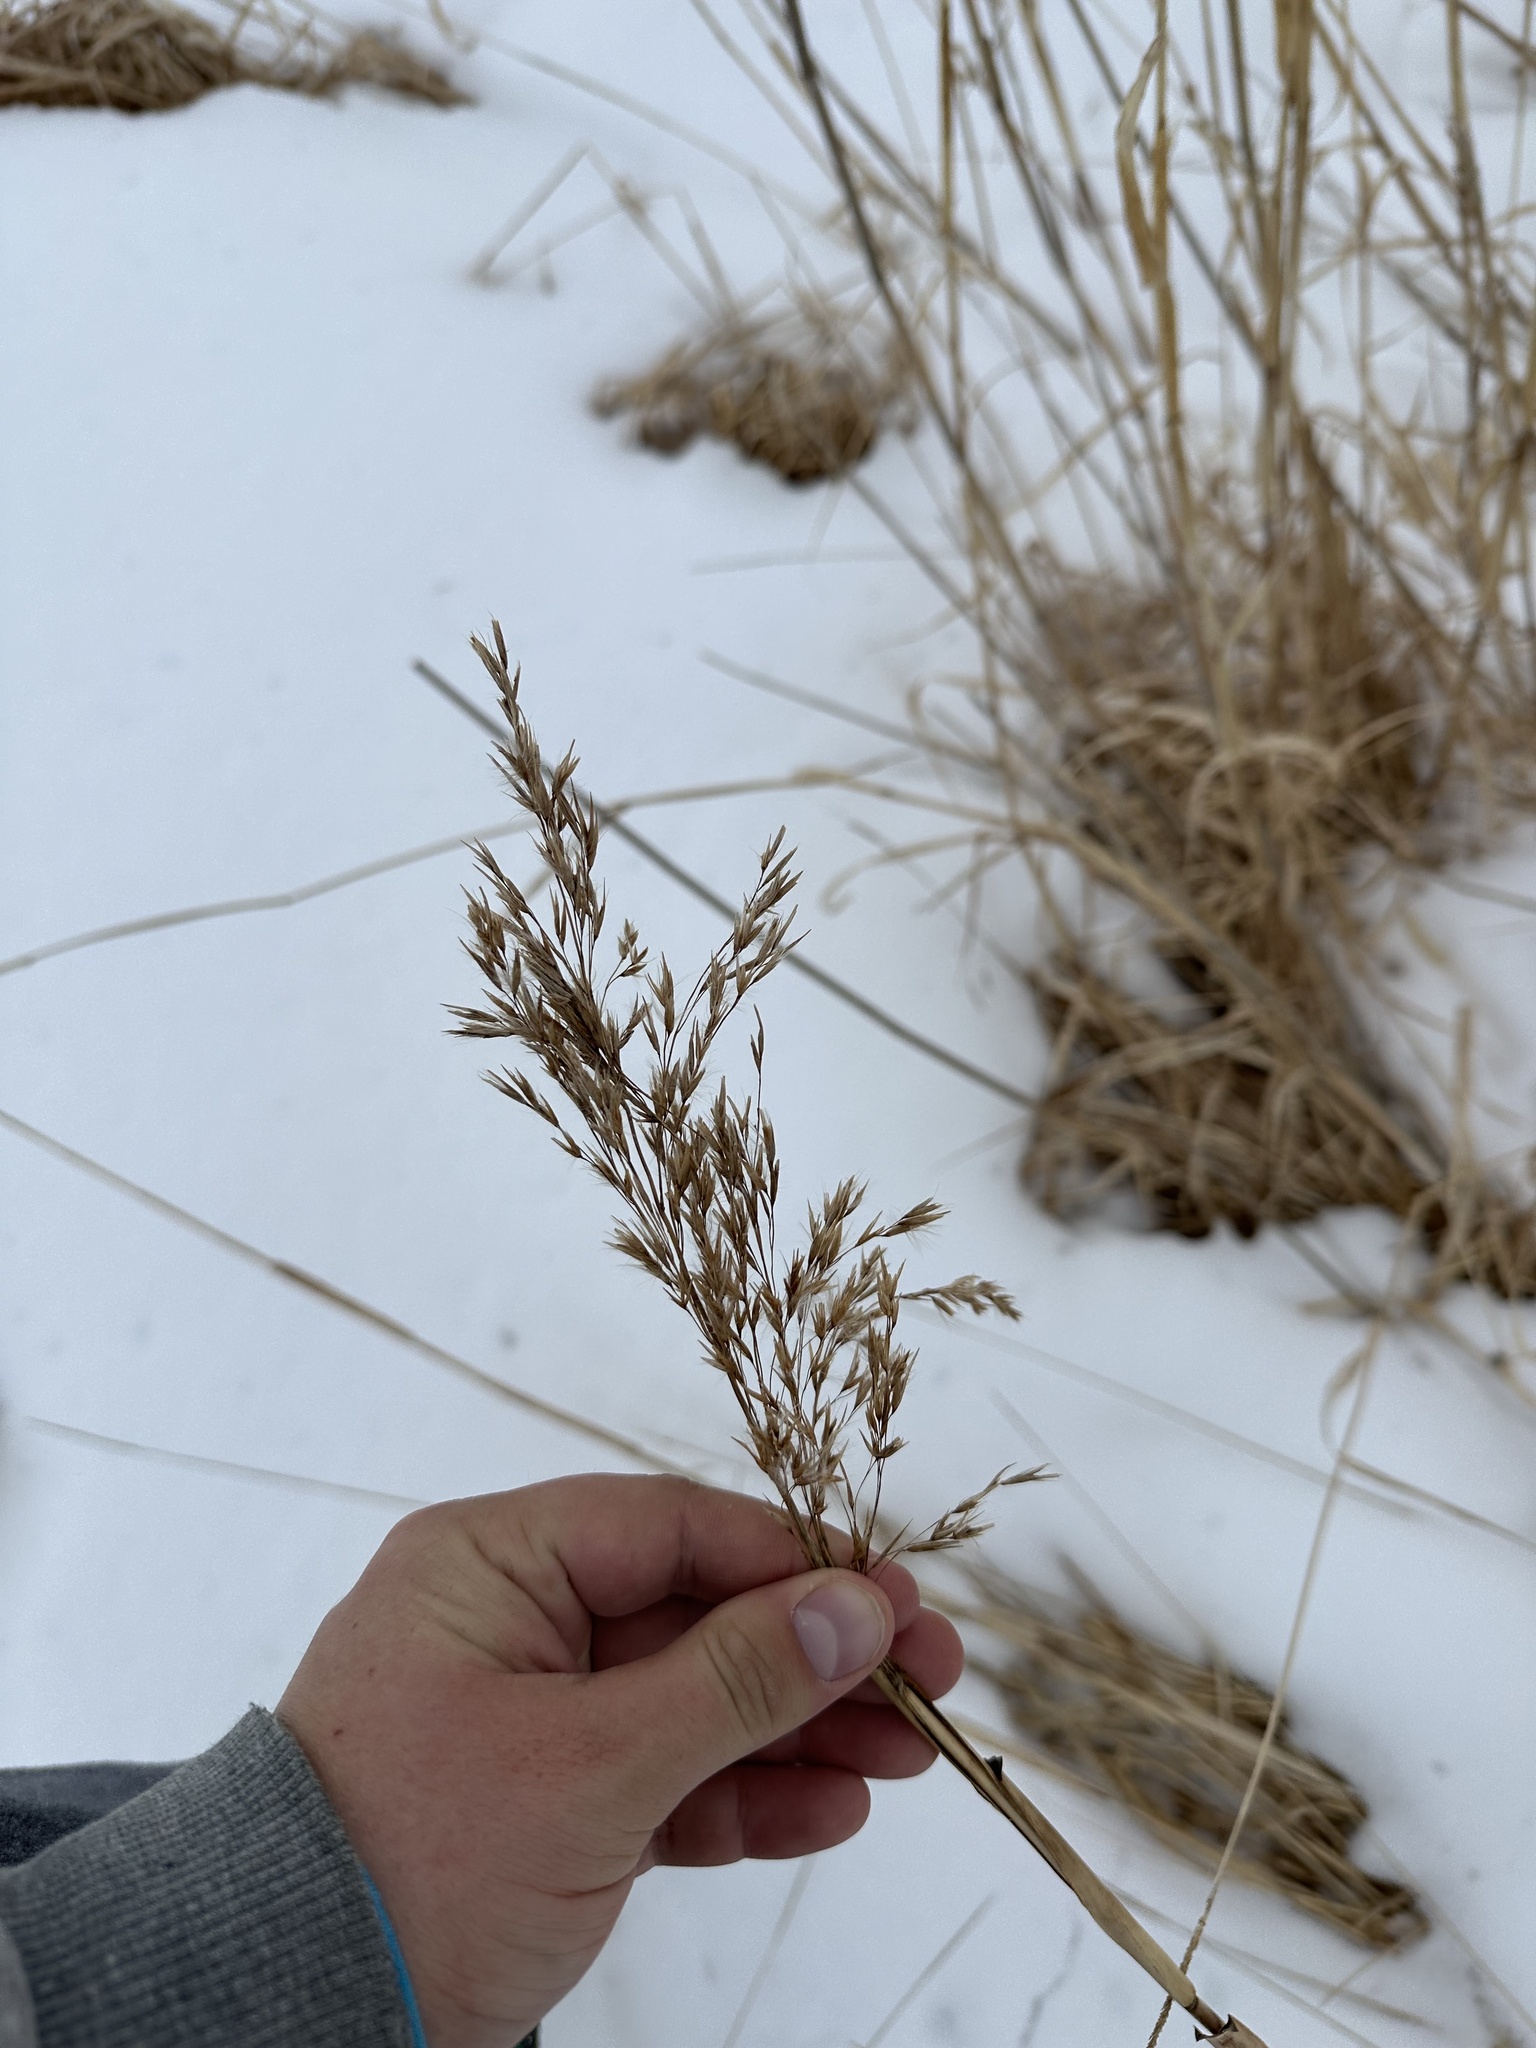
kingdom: Plantae
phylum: Tracheophyta
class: Liliopsida
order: Poales
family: Poaceae
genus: Phragmites
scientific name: Phragmites australis
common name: Common reed
